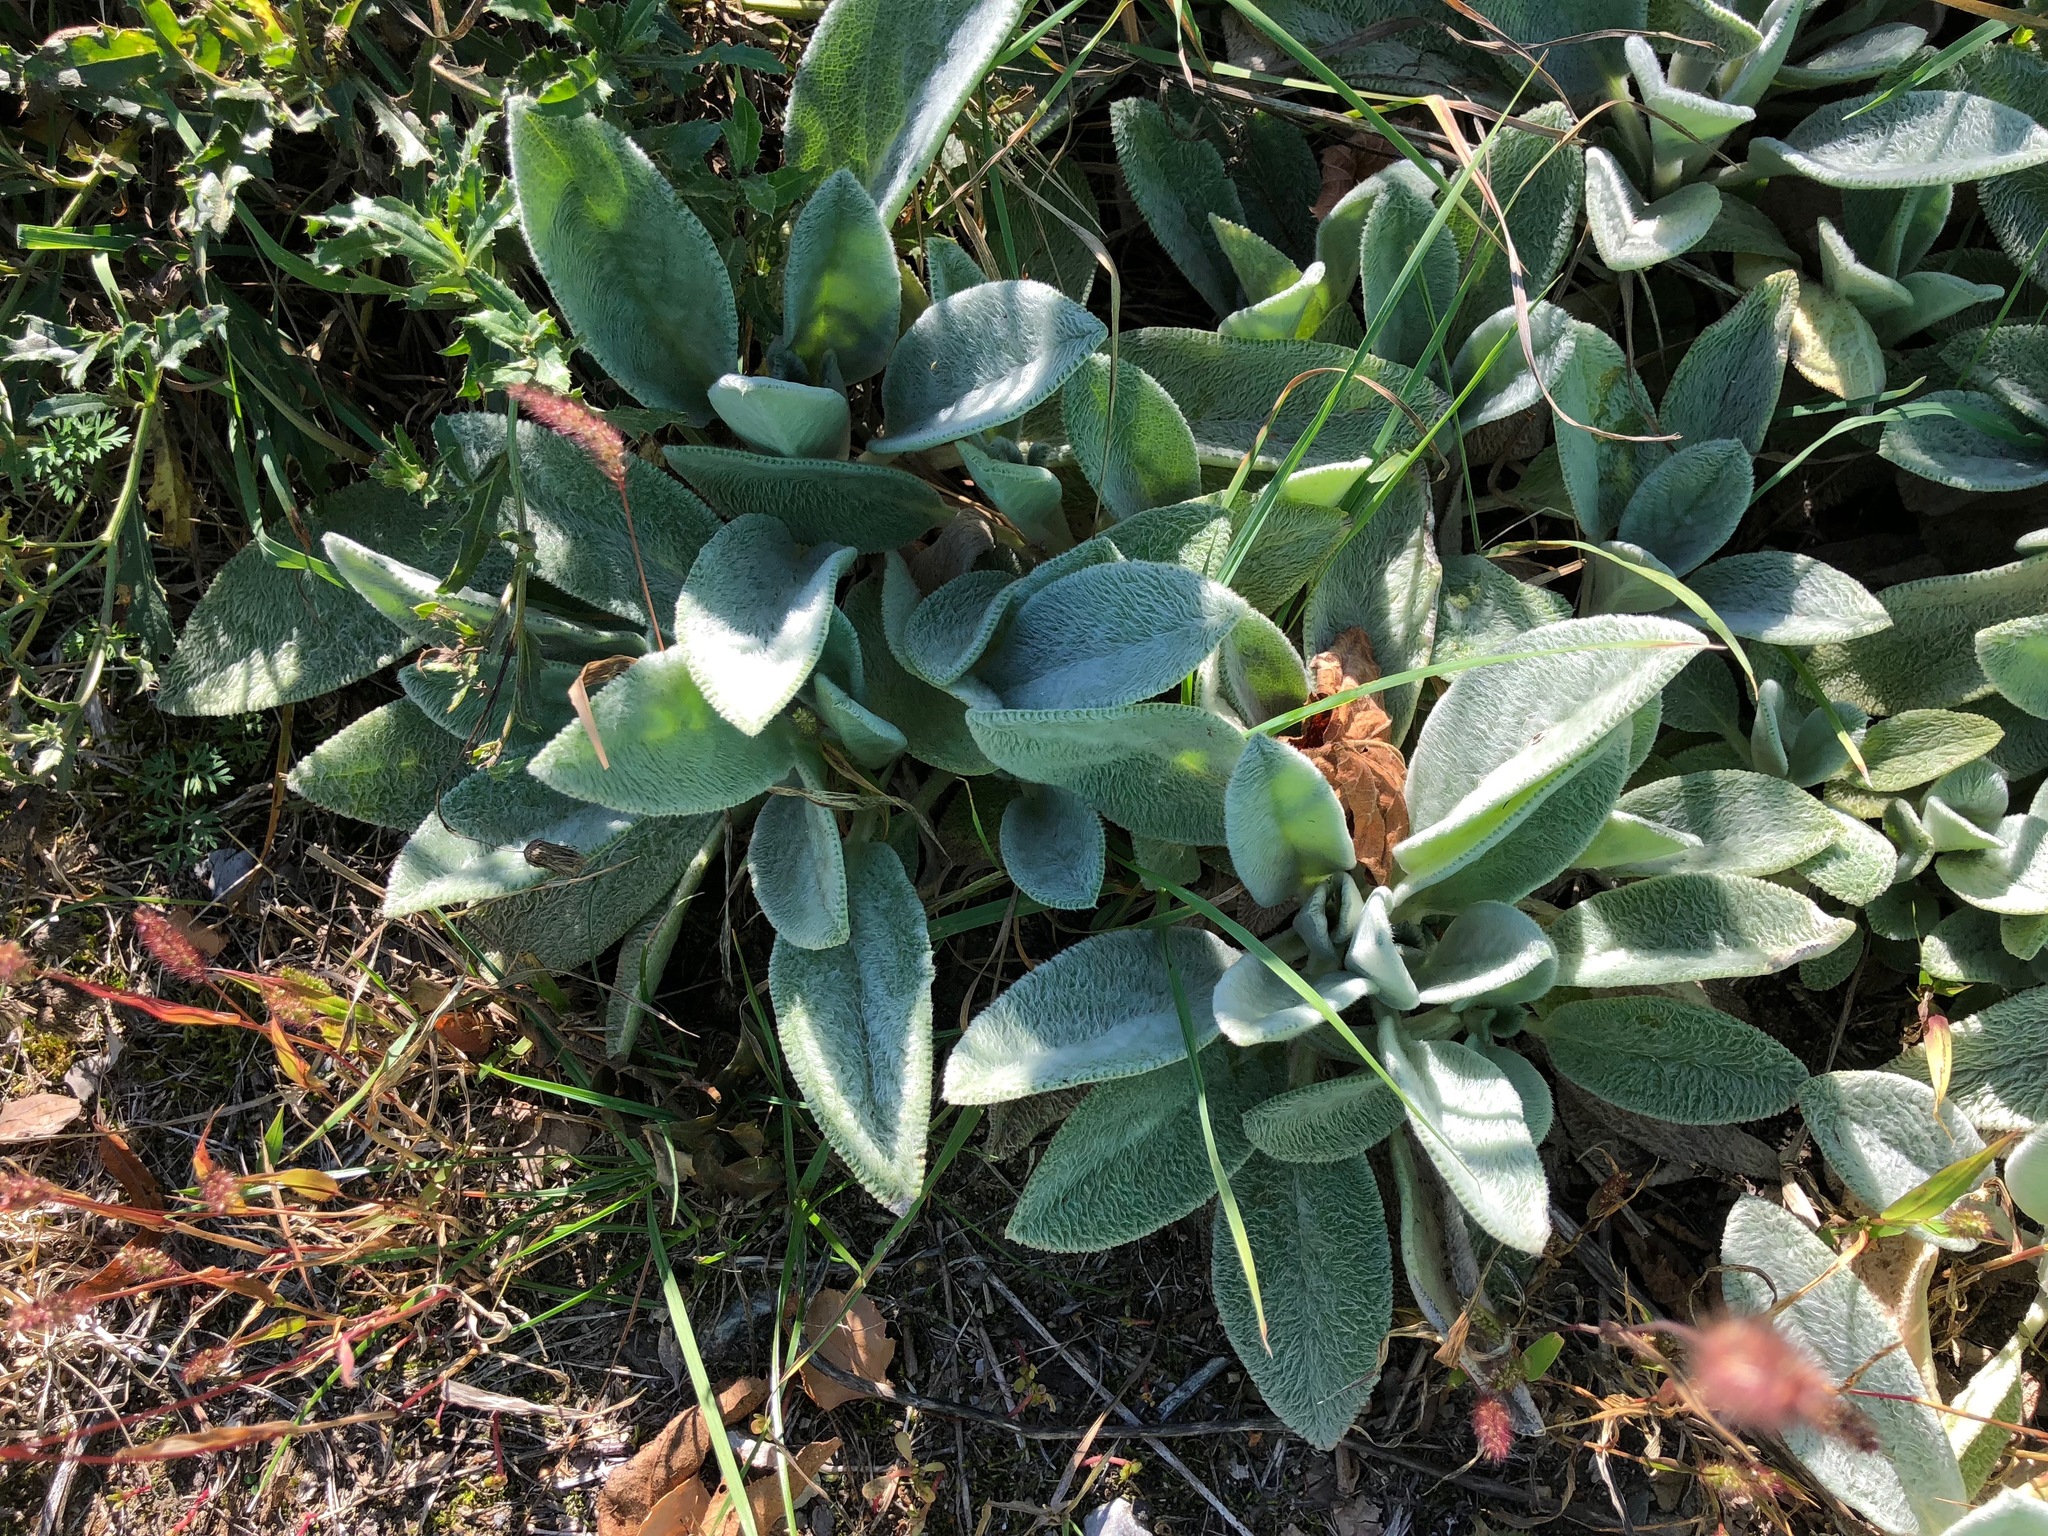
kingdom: Plantae
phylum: Tracheophyta
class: Magnoliopsida
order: Lamiales
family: Lamiaceae
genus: Stachys
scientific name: Stachys byzantina
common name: Lamb's-ear
